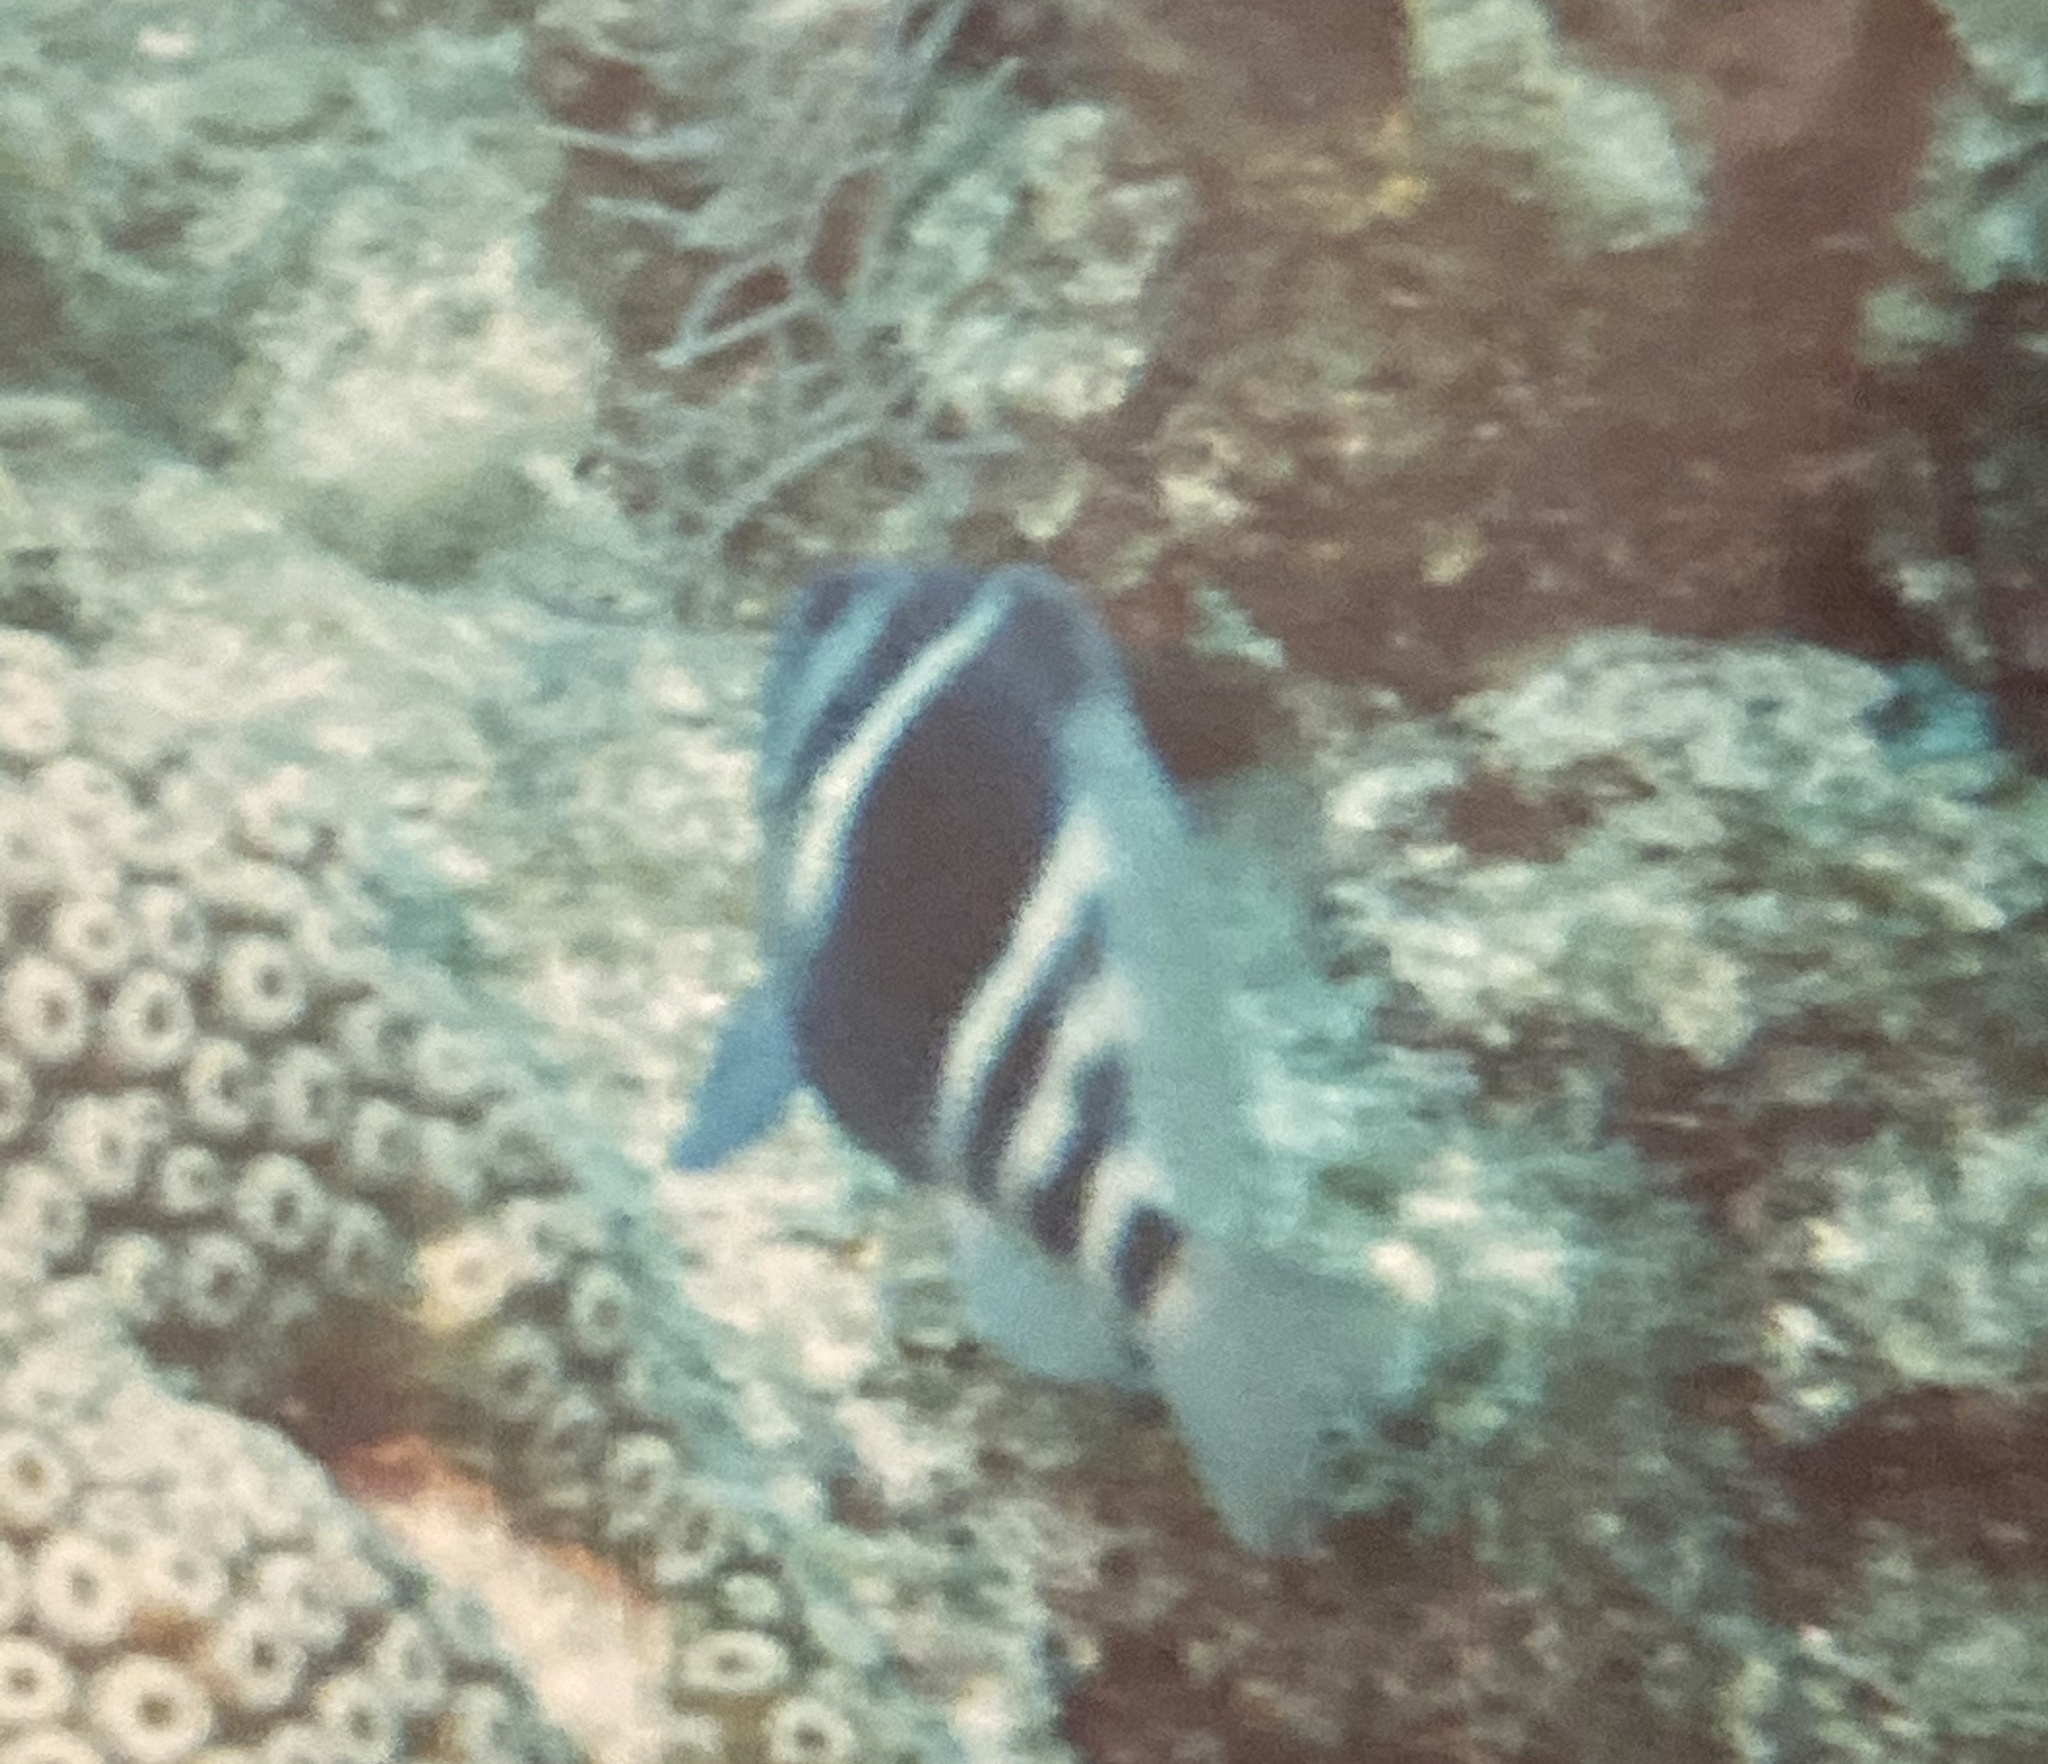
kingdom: Animalia
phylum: Chordata
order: Perciformes
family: Serranidae
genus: Hypoplectrus
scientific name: Hypoplectrus puella
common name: Barred hamlet
